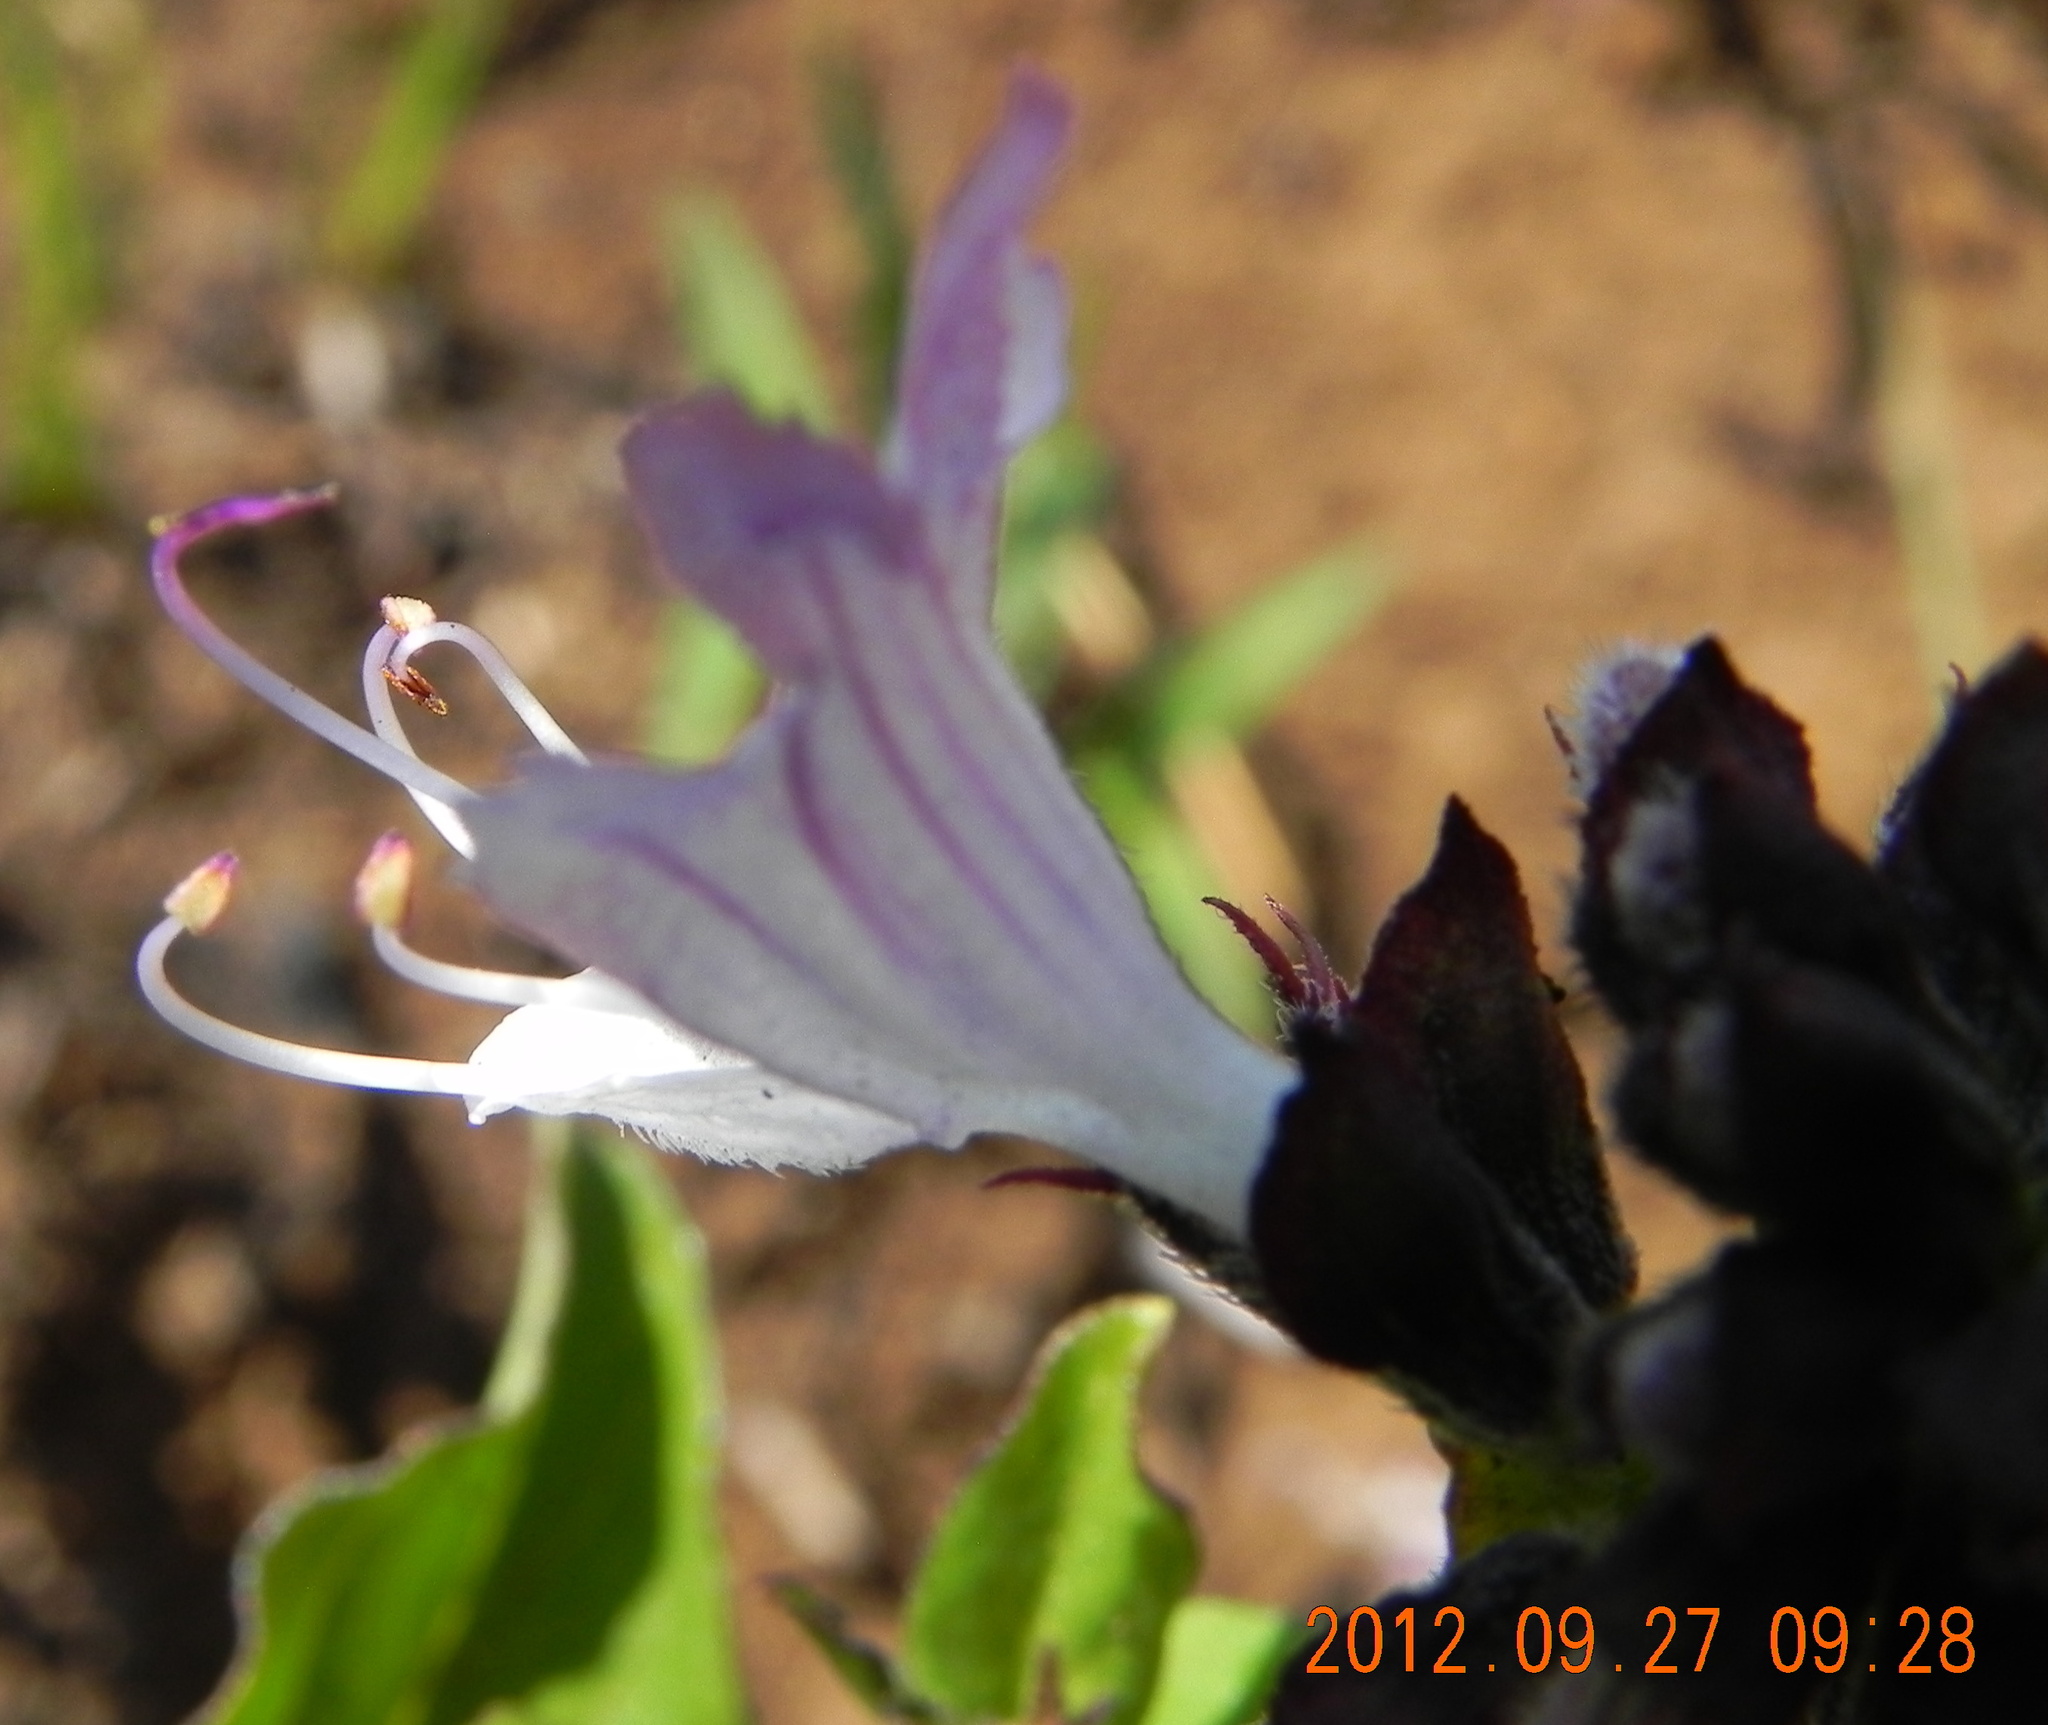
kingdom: Plantae
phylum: Tracheophyta
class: Magnoliopsida
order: Lamiales
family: Lamiaceae
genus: Ocimum
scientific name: Ocimum obovatum
